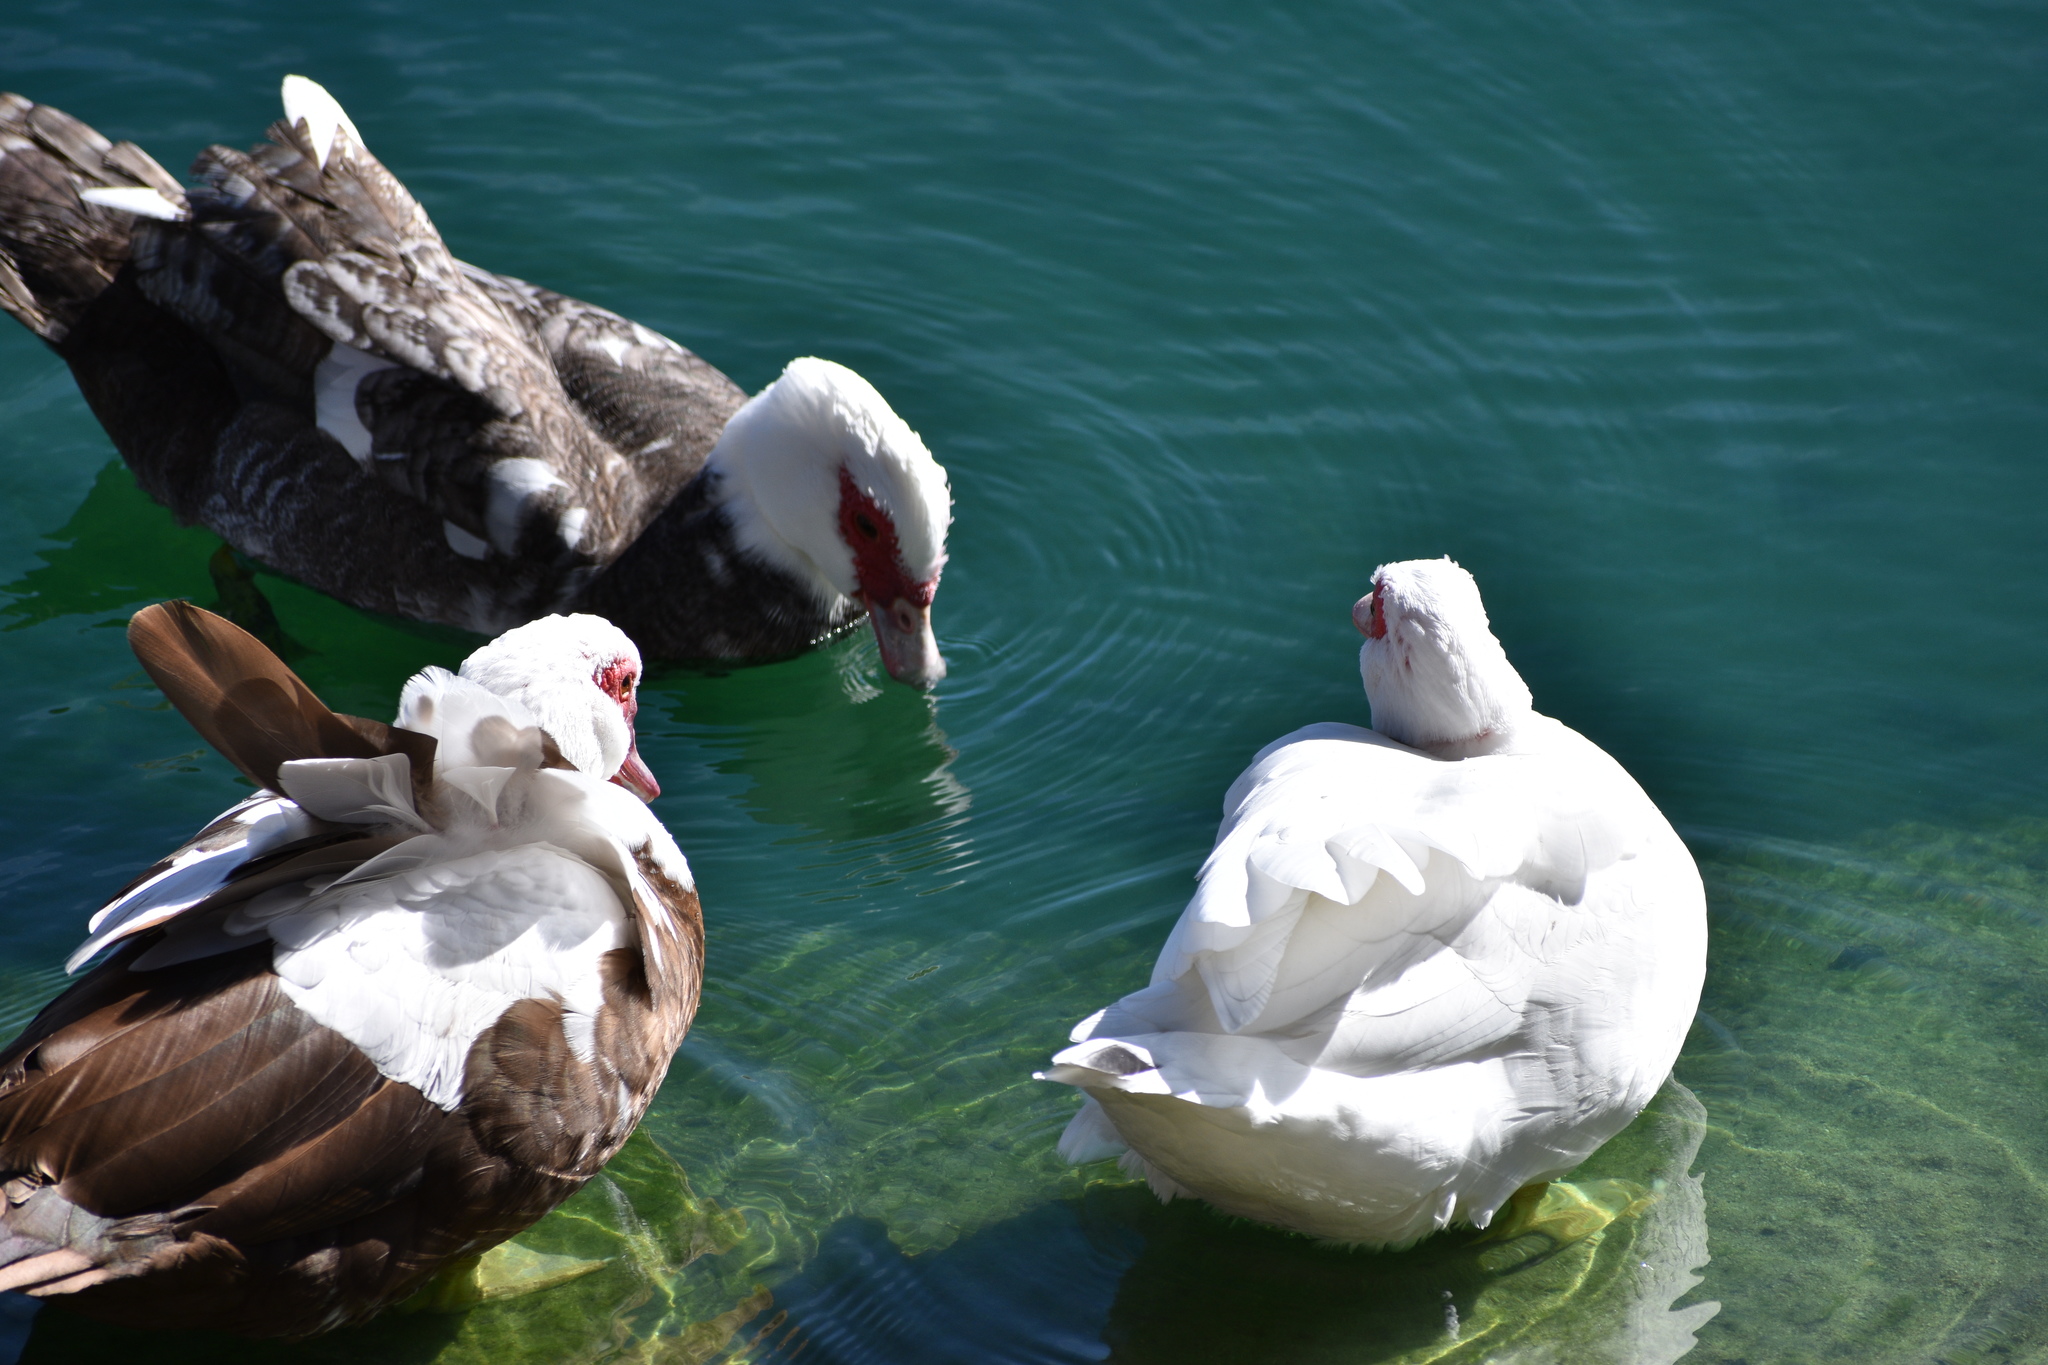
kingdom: Animalia
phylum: Chordata
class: Aves
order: Anseriformes
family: Anatidae
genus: Cairina
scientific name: Cairina moschata
